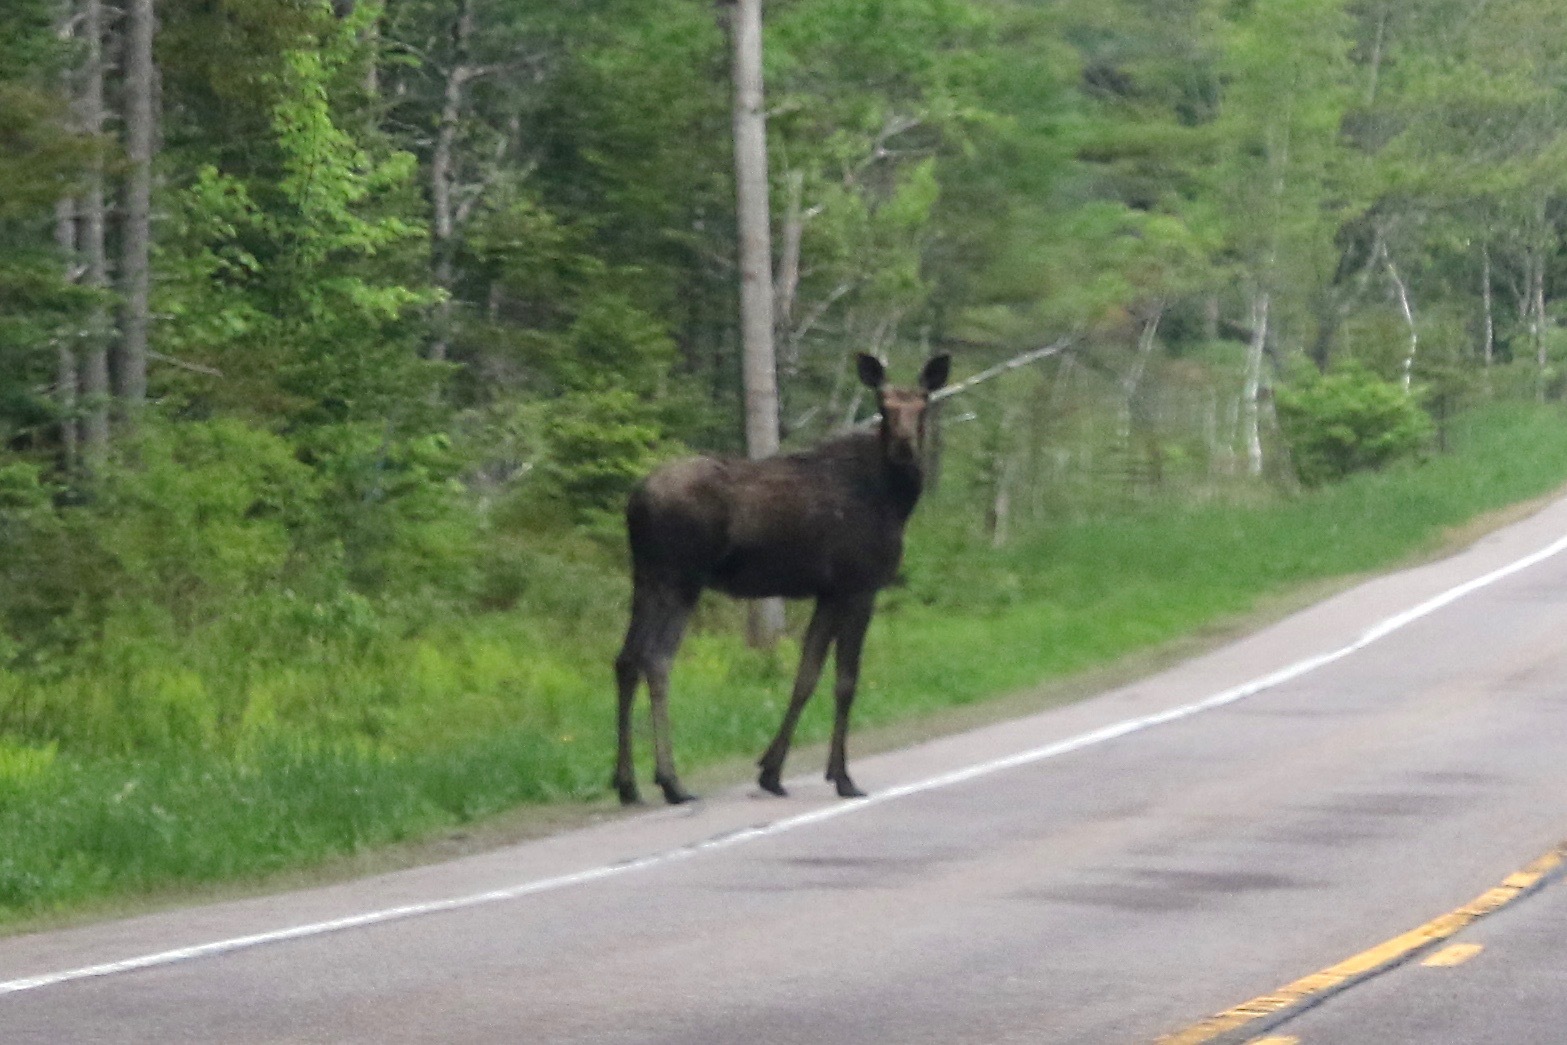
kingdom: Animalia
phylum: Chordata
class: Mammalia
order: Artiodactyla
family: Cervidae
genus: Alces
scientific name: Alces alces
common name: Moose
